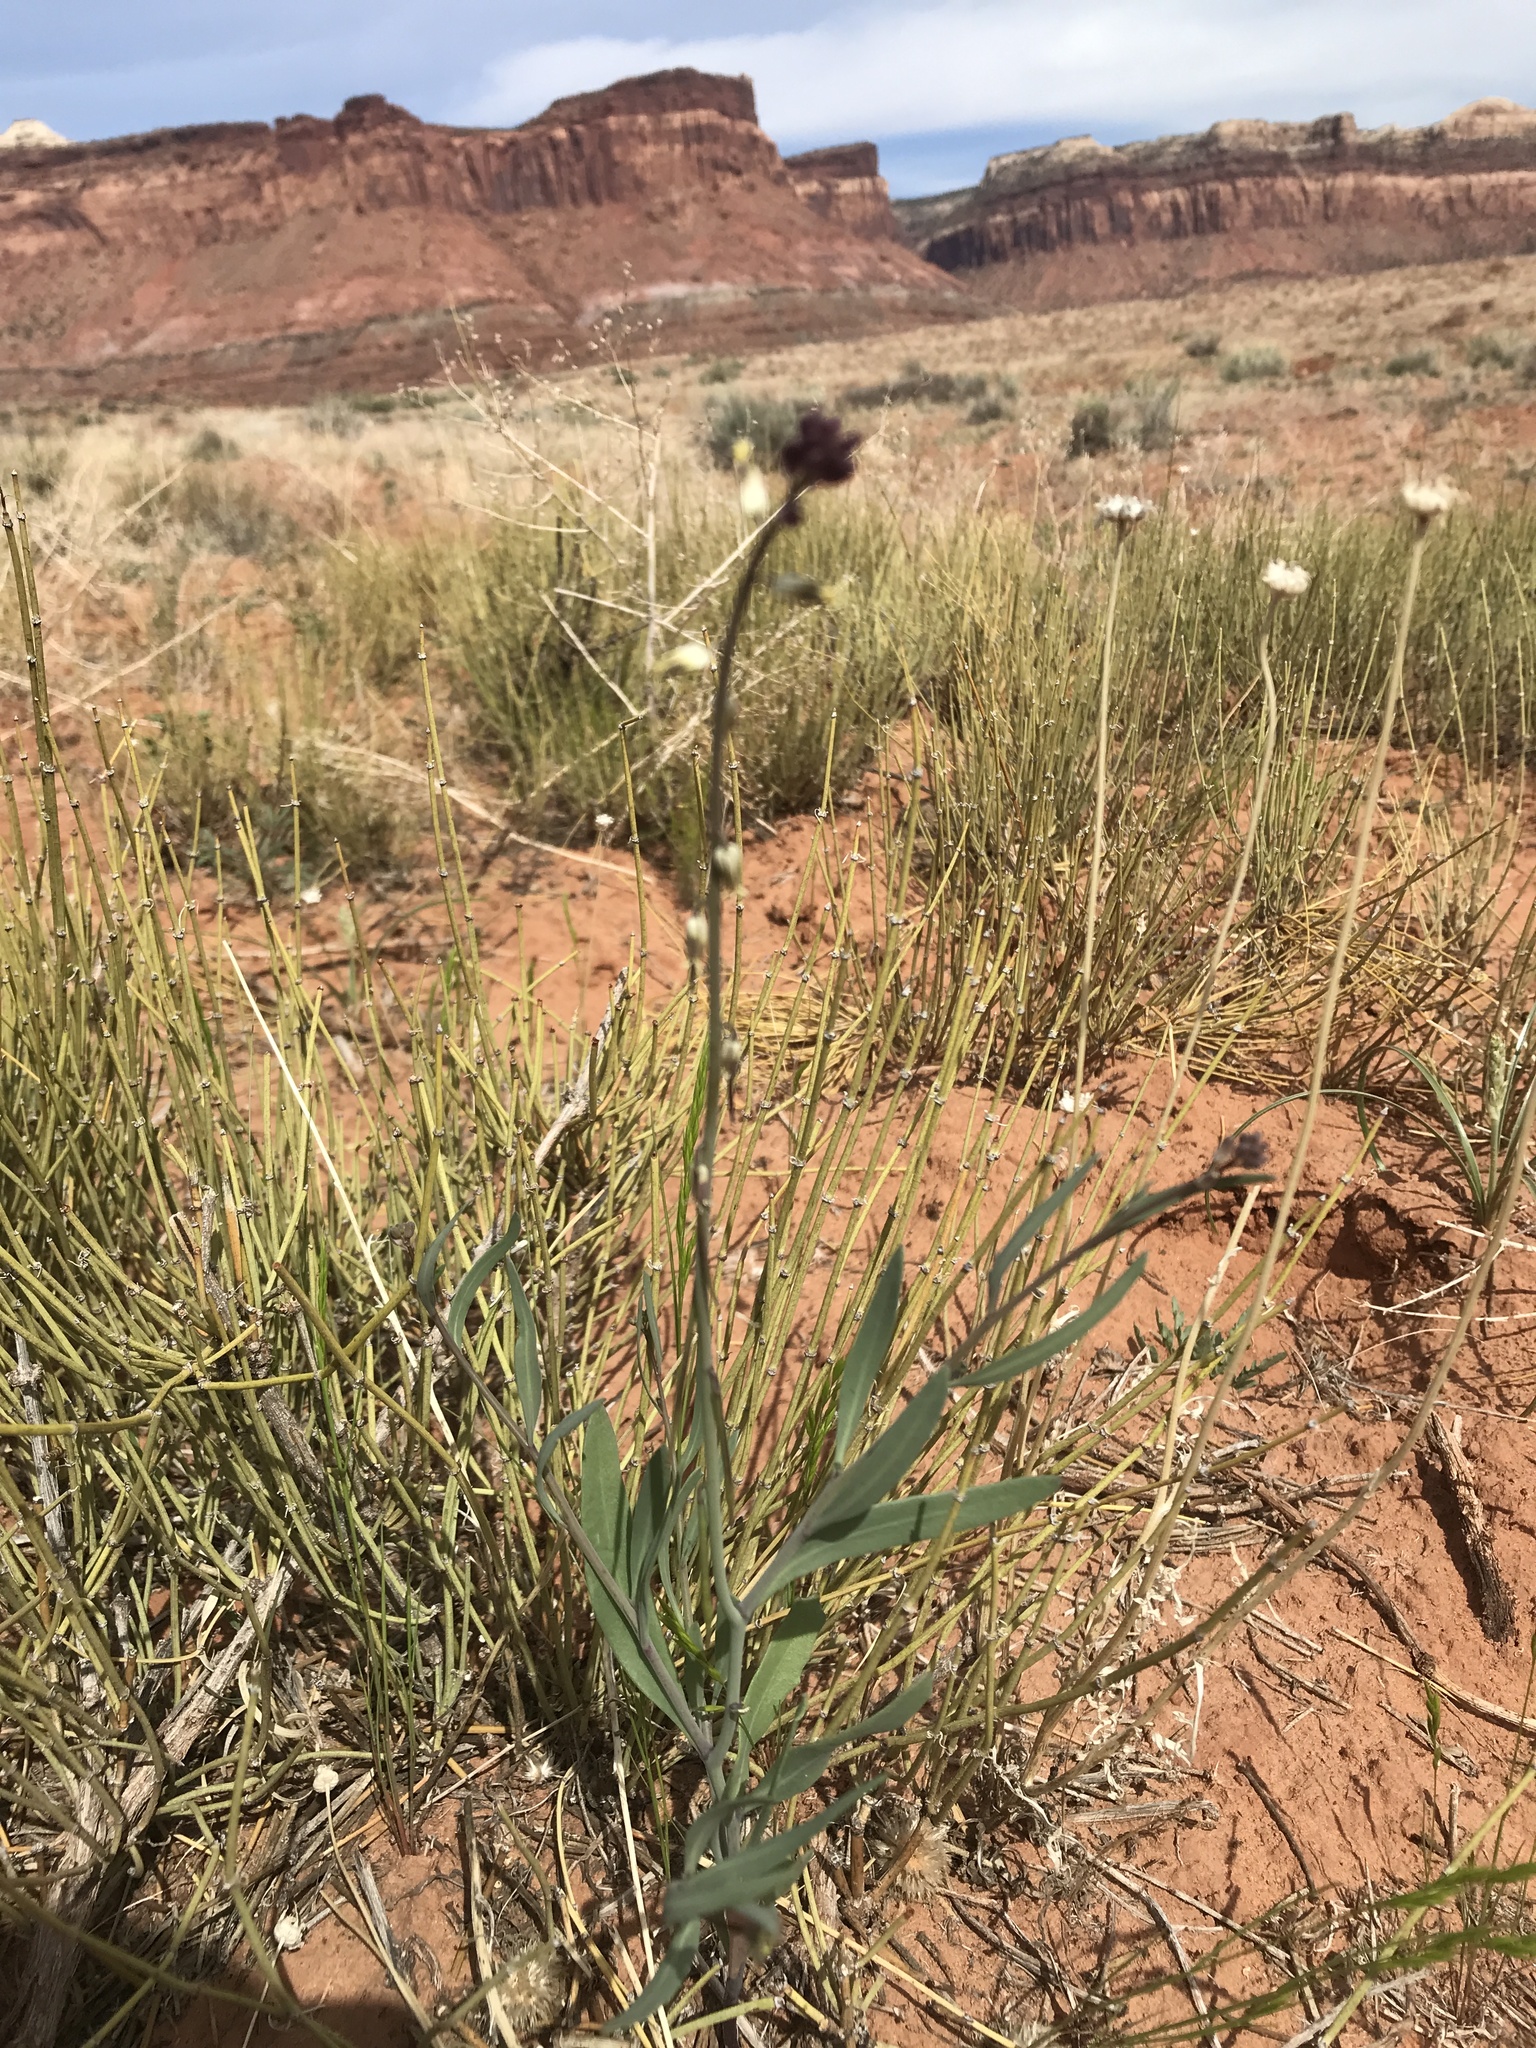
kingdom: Plantae
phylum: Tracheophyta
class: Magnoliopsida
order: Brassicales
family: Brassicaceae
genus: Streptanthus
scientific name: Streptanthus longirostris
